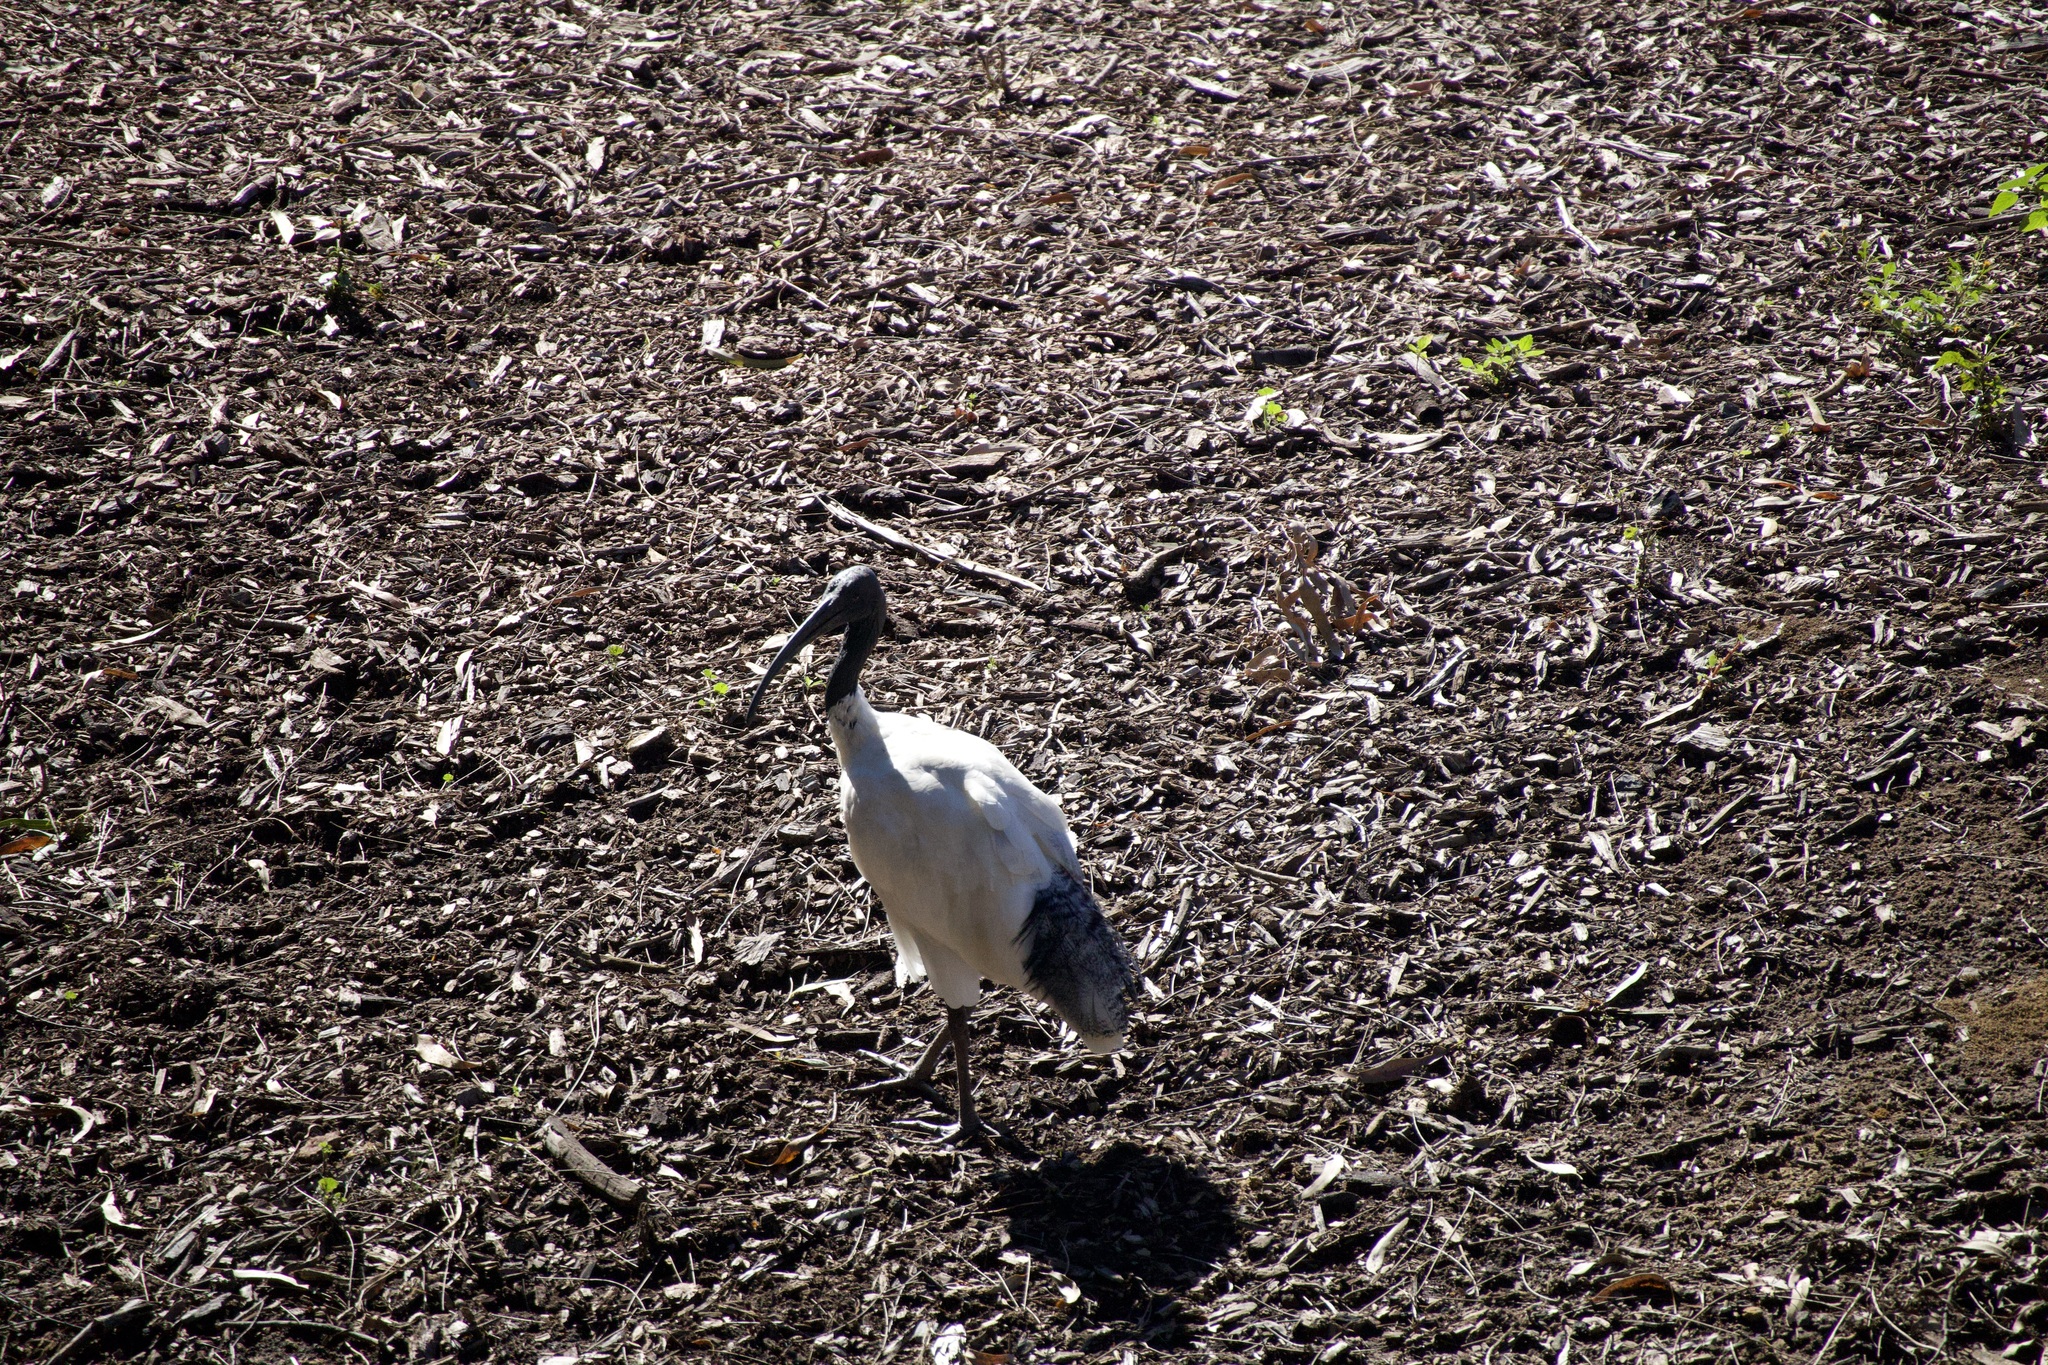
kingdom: Animalia
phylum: Chordata
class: Aves
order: Pelecaniformes
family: Threskiornithidae
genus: Threskiornis
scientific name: Threskiornis molucca
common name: Australian white ibis
